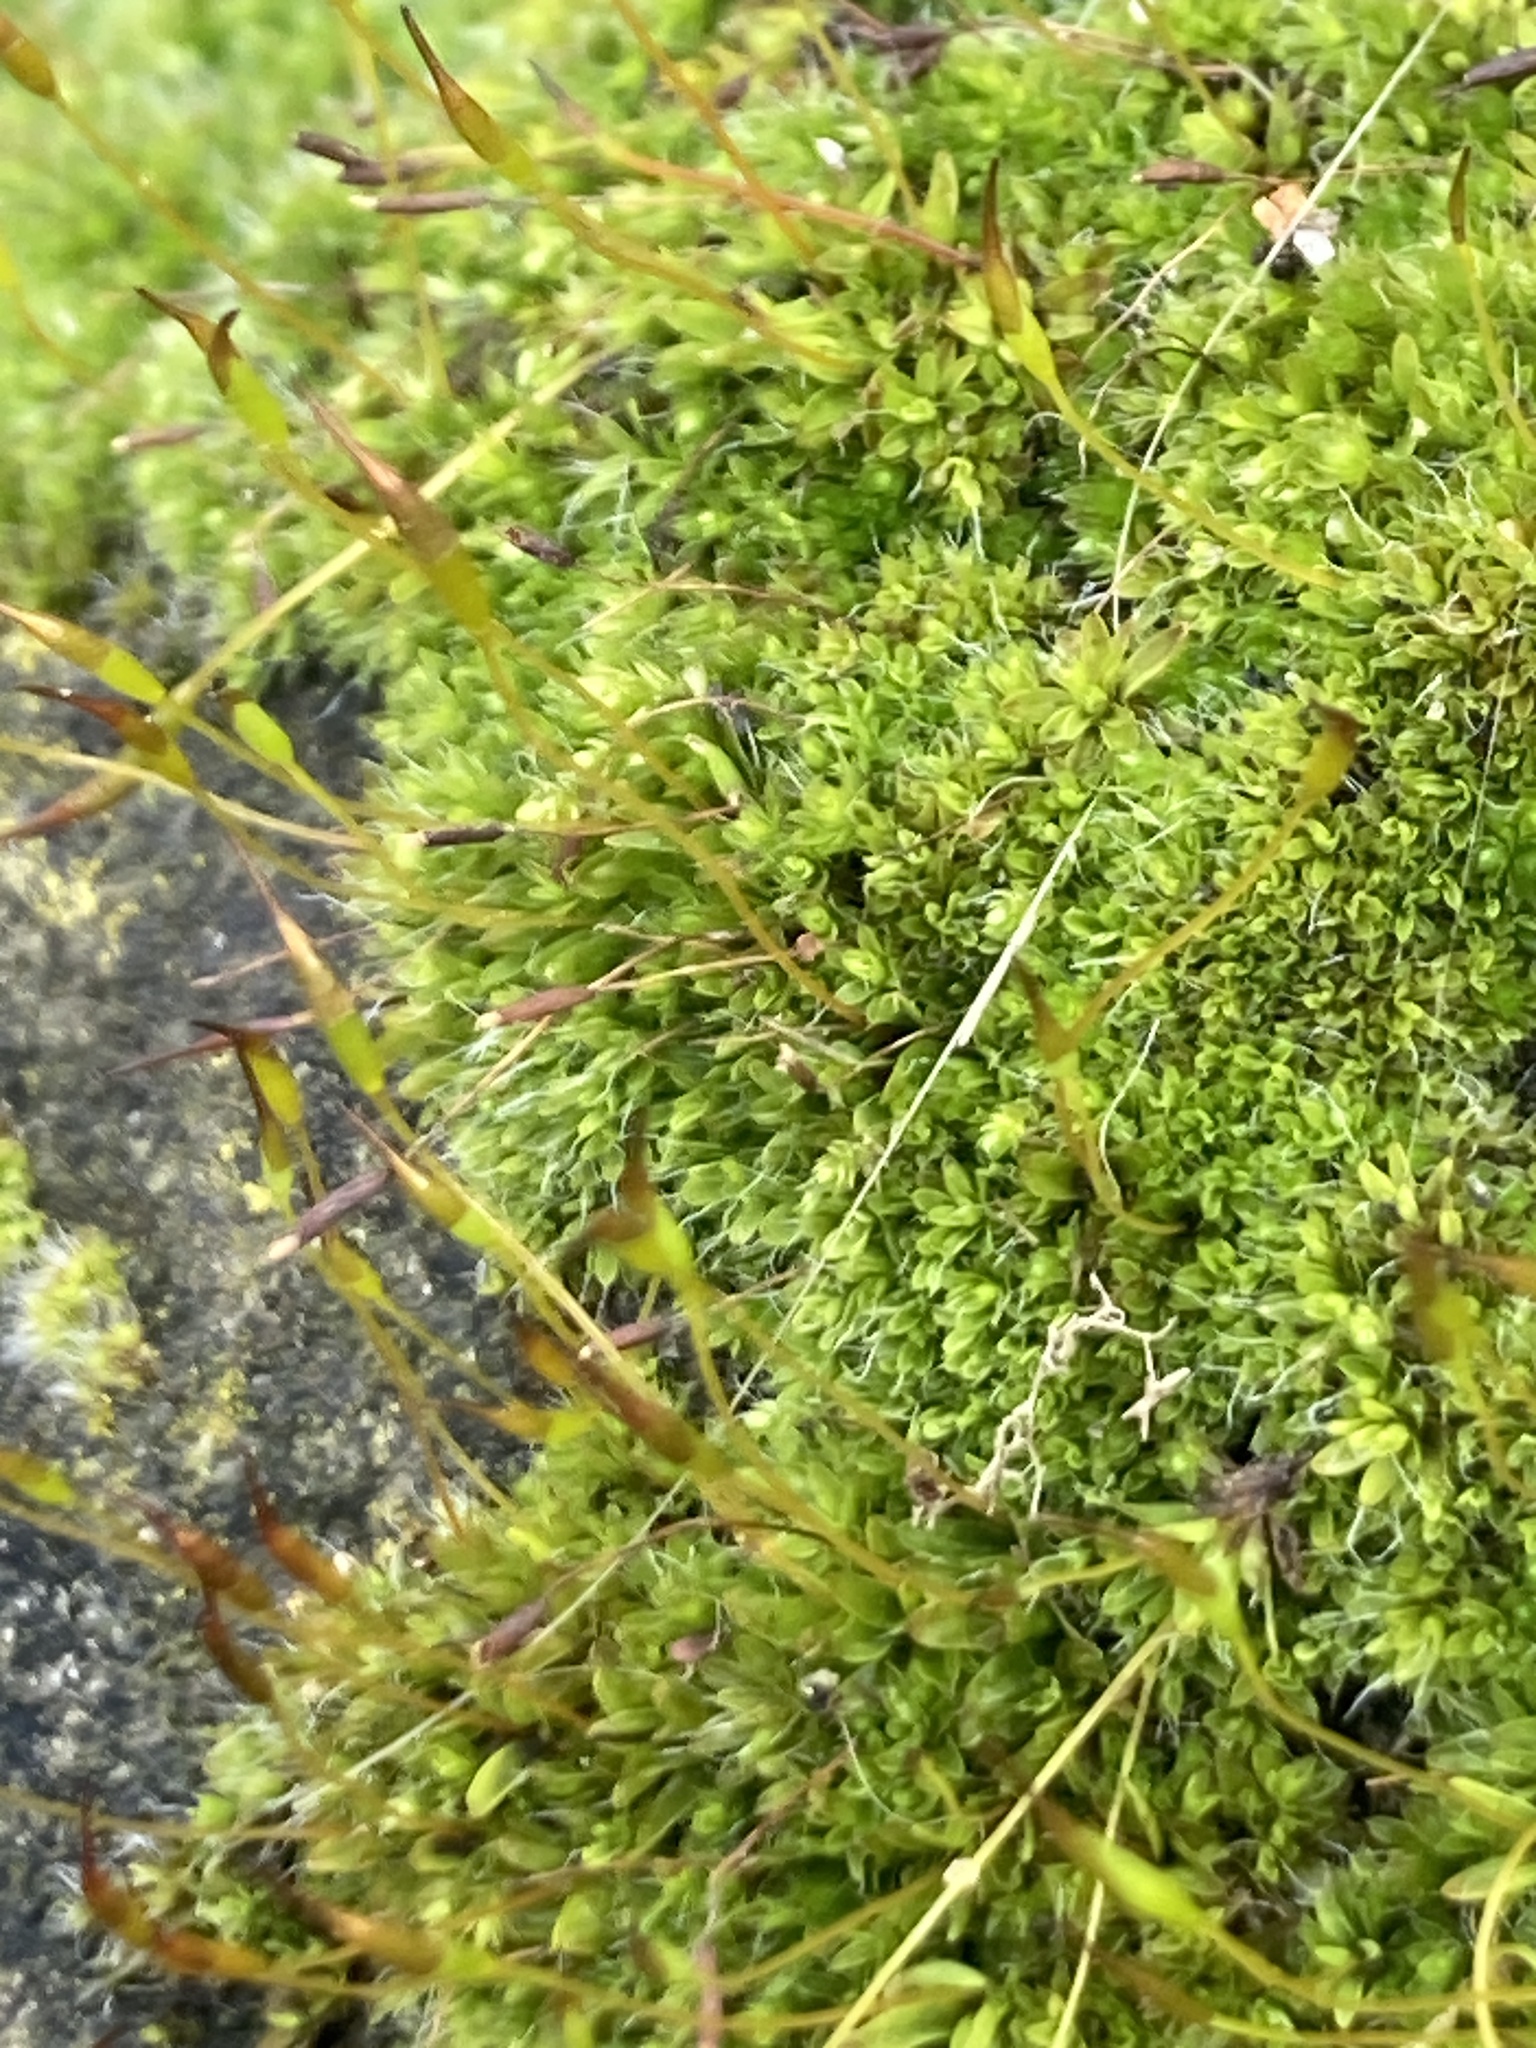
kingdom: Plantae
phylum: Bryophyta
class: Bryopsida
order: Pottiales
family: Pottiaceae
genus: Tortula
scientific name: Tortula muralis
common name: Wall screw-moss
